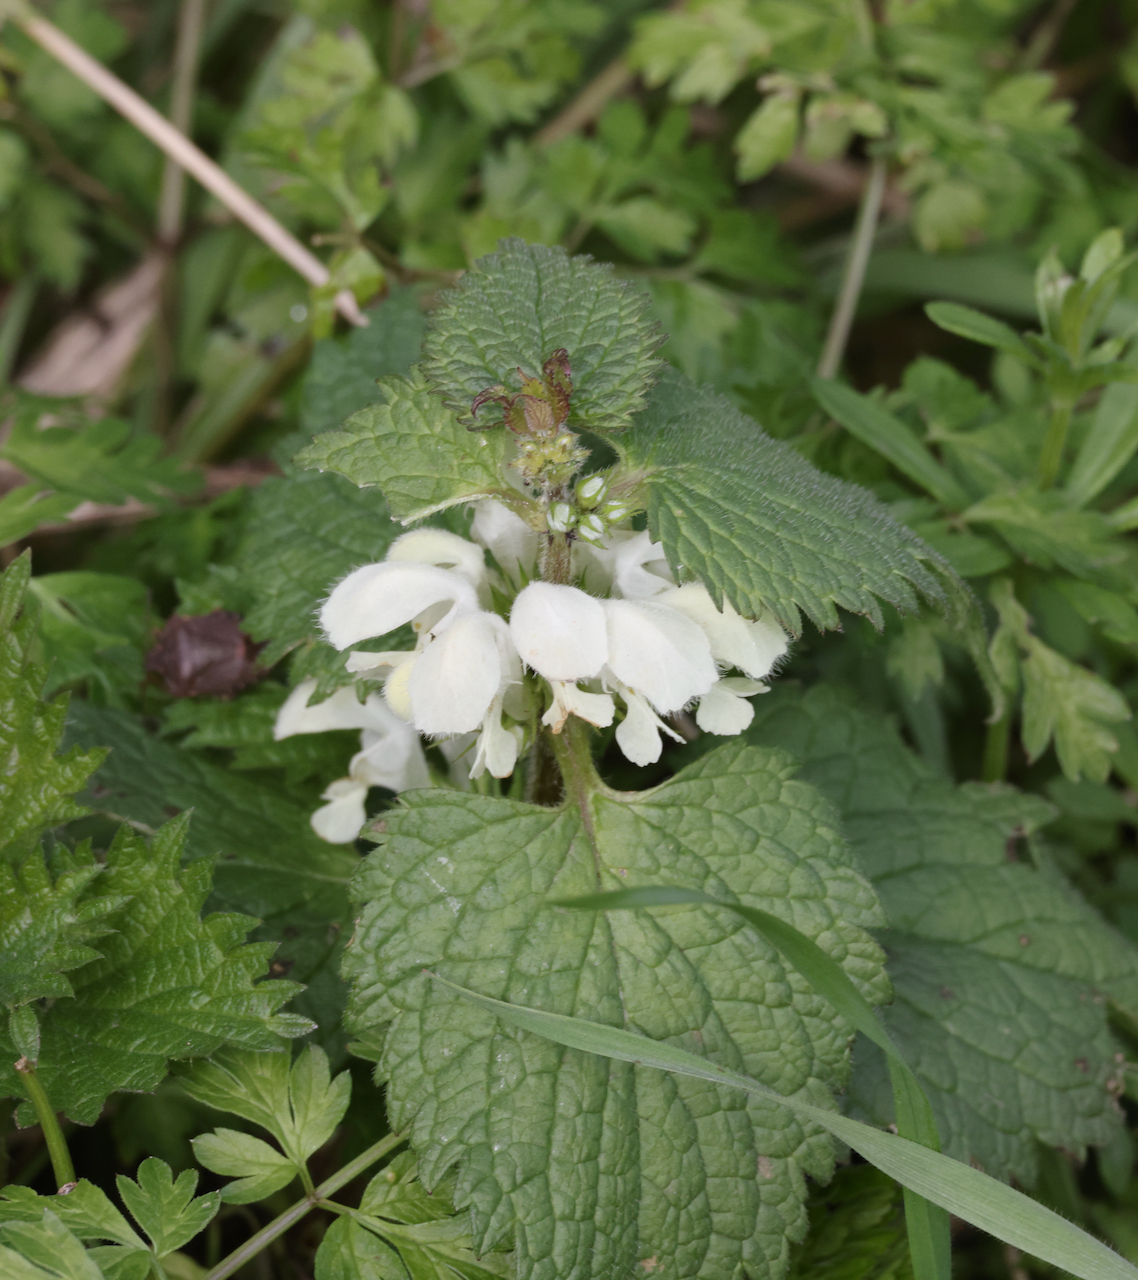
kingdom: Plantae
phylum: Tracheophyta
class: Magnoliopsida
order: Lamiales
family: Lamiaceae
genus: Lamium
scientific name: Lamium album
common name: White dead-nettle
